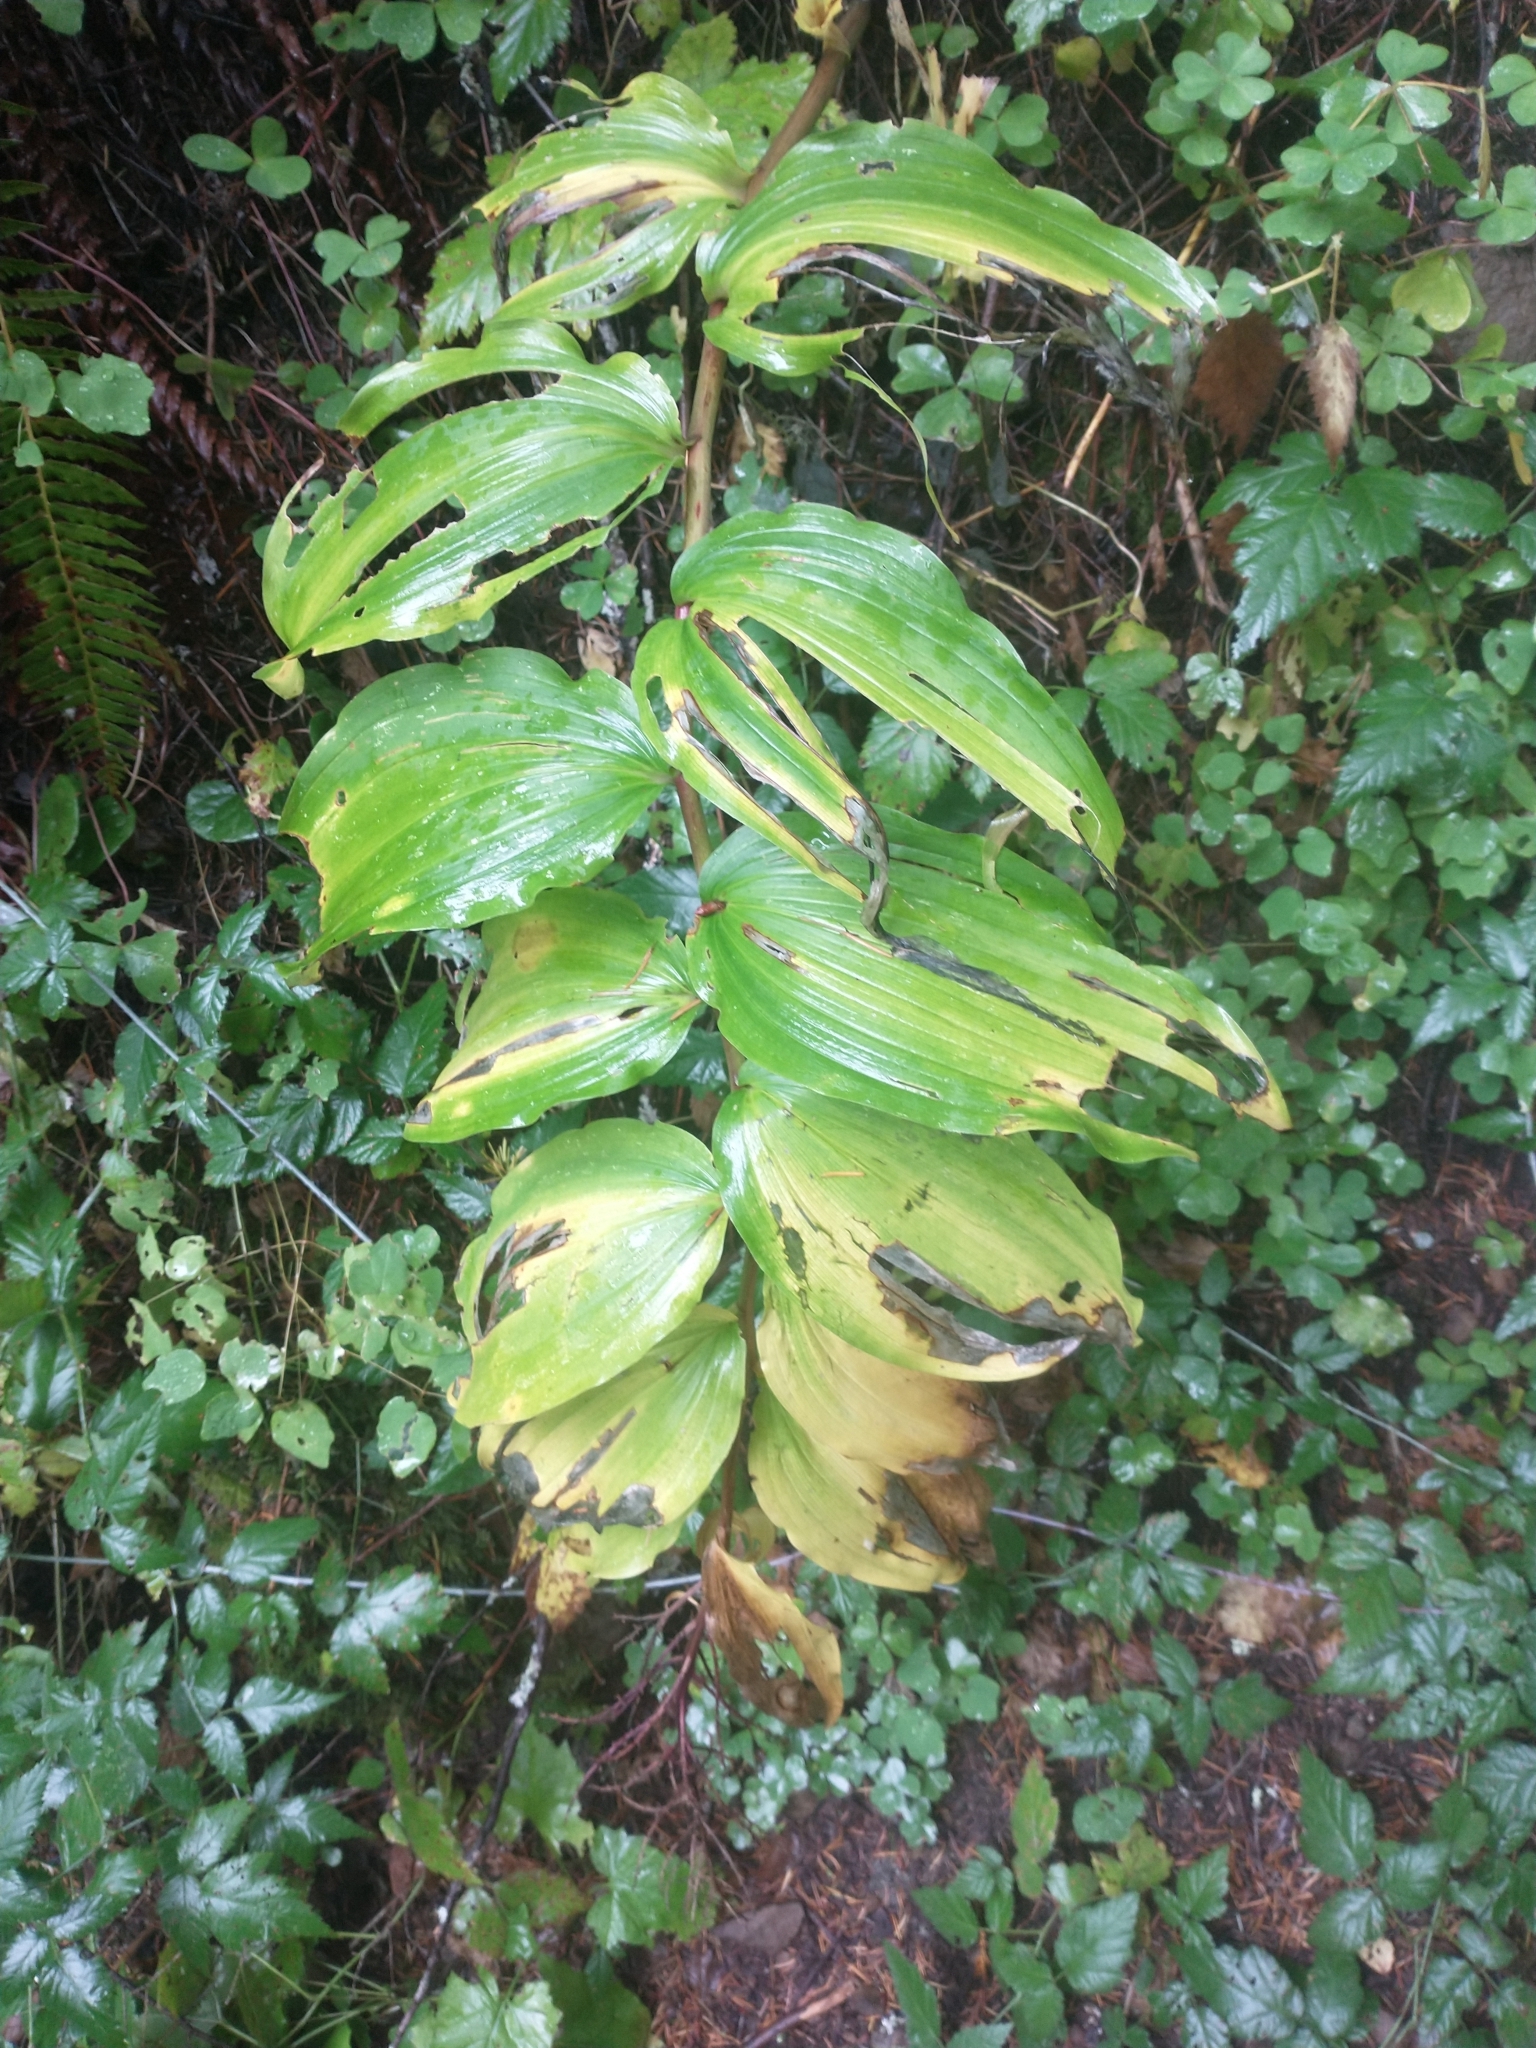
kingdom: Plantae
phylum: Tracheophyta
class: Liliopsida
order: Asparagales
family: Asparagaceae
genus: Maianthemum
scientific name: Maianthemum racemosum
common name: False spikenard
